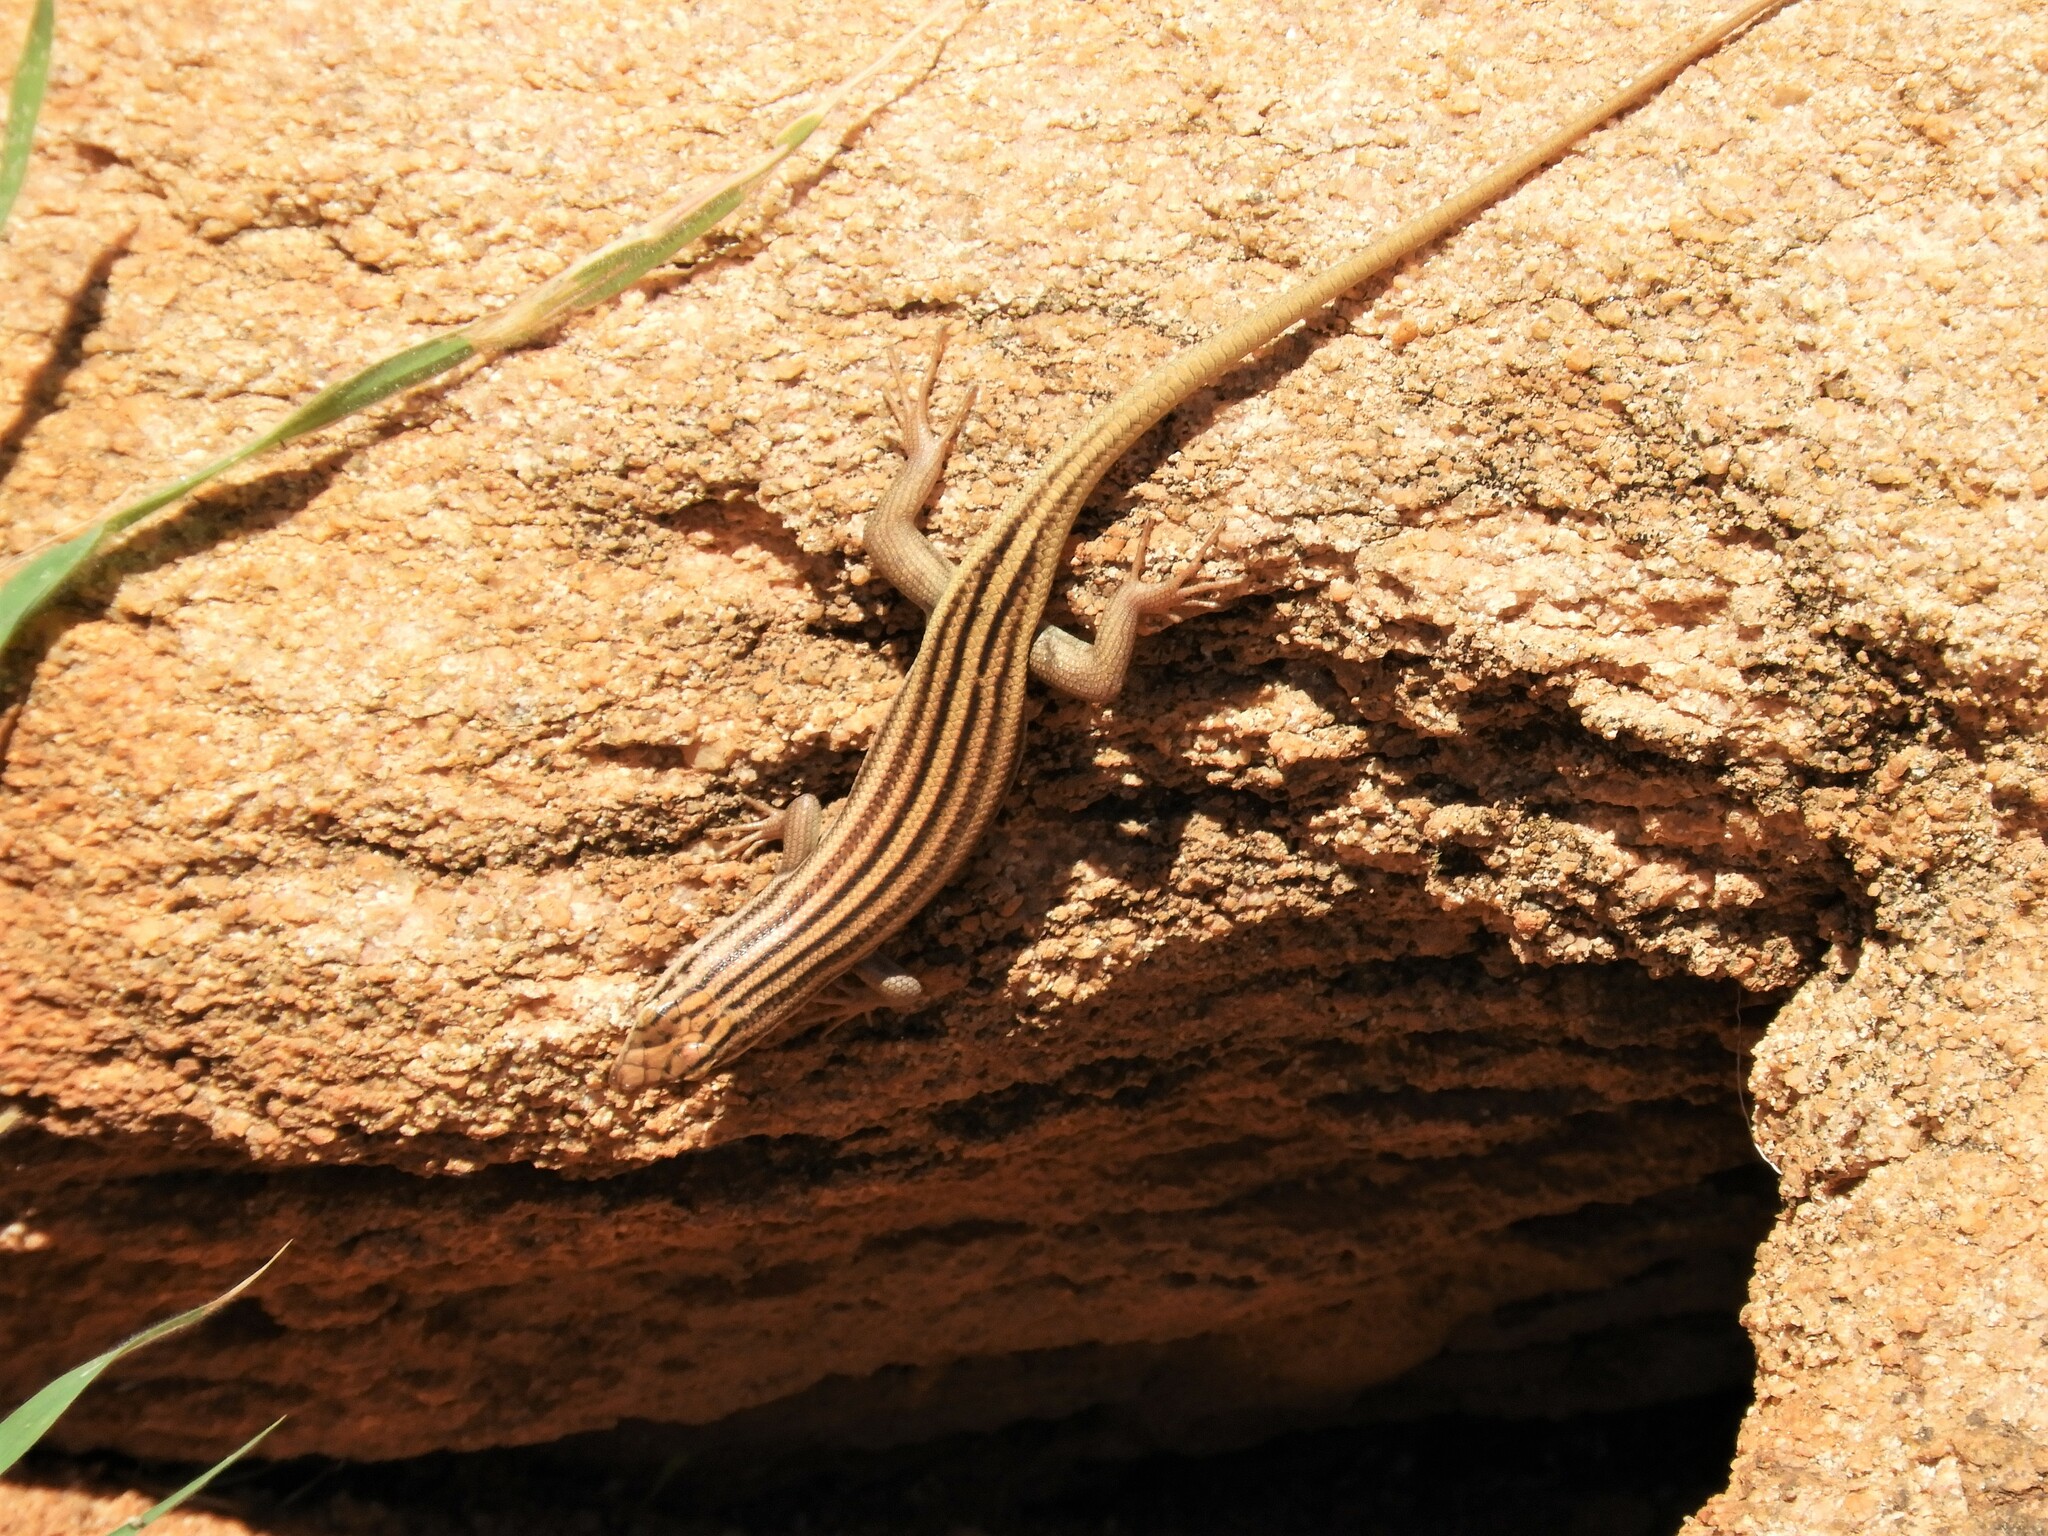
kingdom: Animalia
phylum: Chordata
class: Squamata
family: Scincidae
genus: Trachylepis
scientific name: Trachylepis sulcata
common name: Western rock skink
